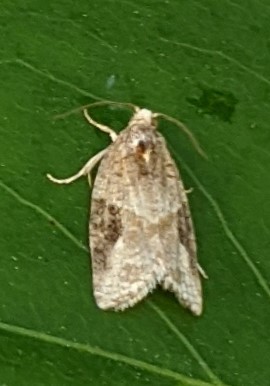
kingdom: Animalia
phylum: Arthropoda
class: Insecta
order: Lepidoptera
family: Tortricidae
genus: Argyrotaenia
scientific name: Argyrotaenia mariana
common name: Gray-banded leafroller moth
